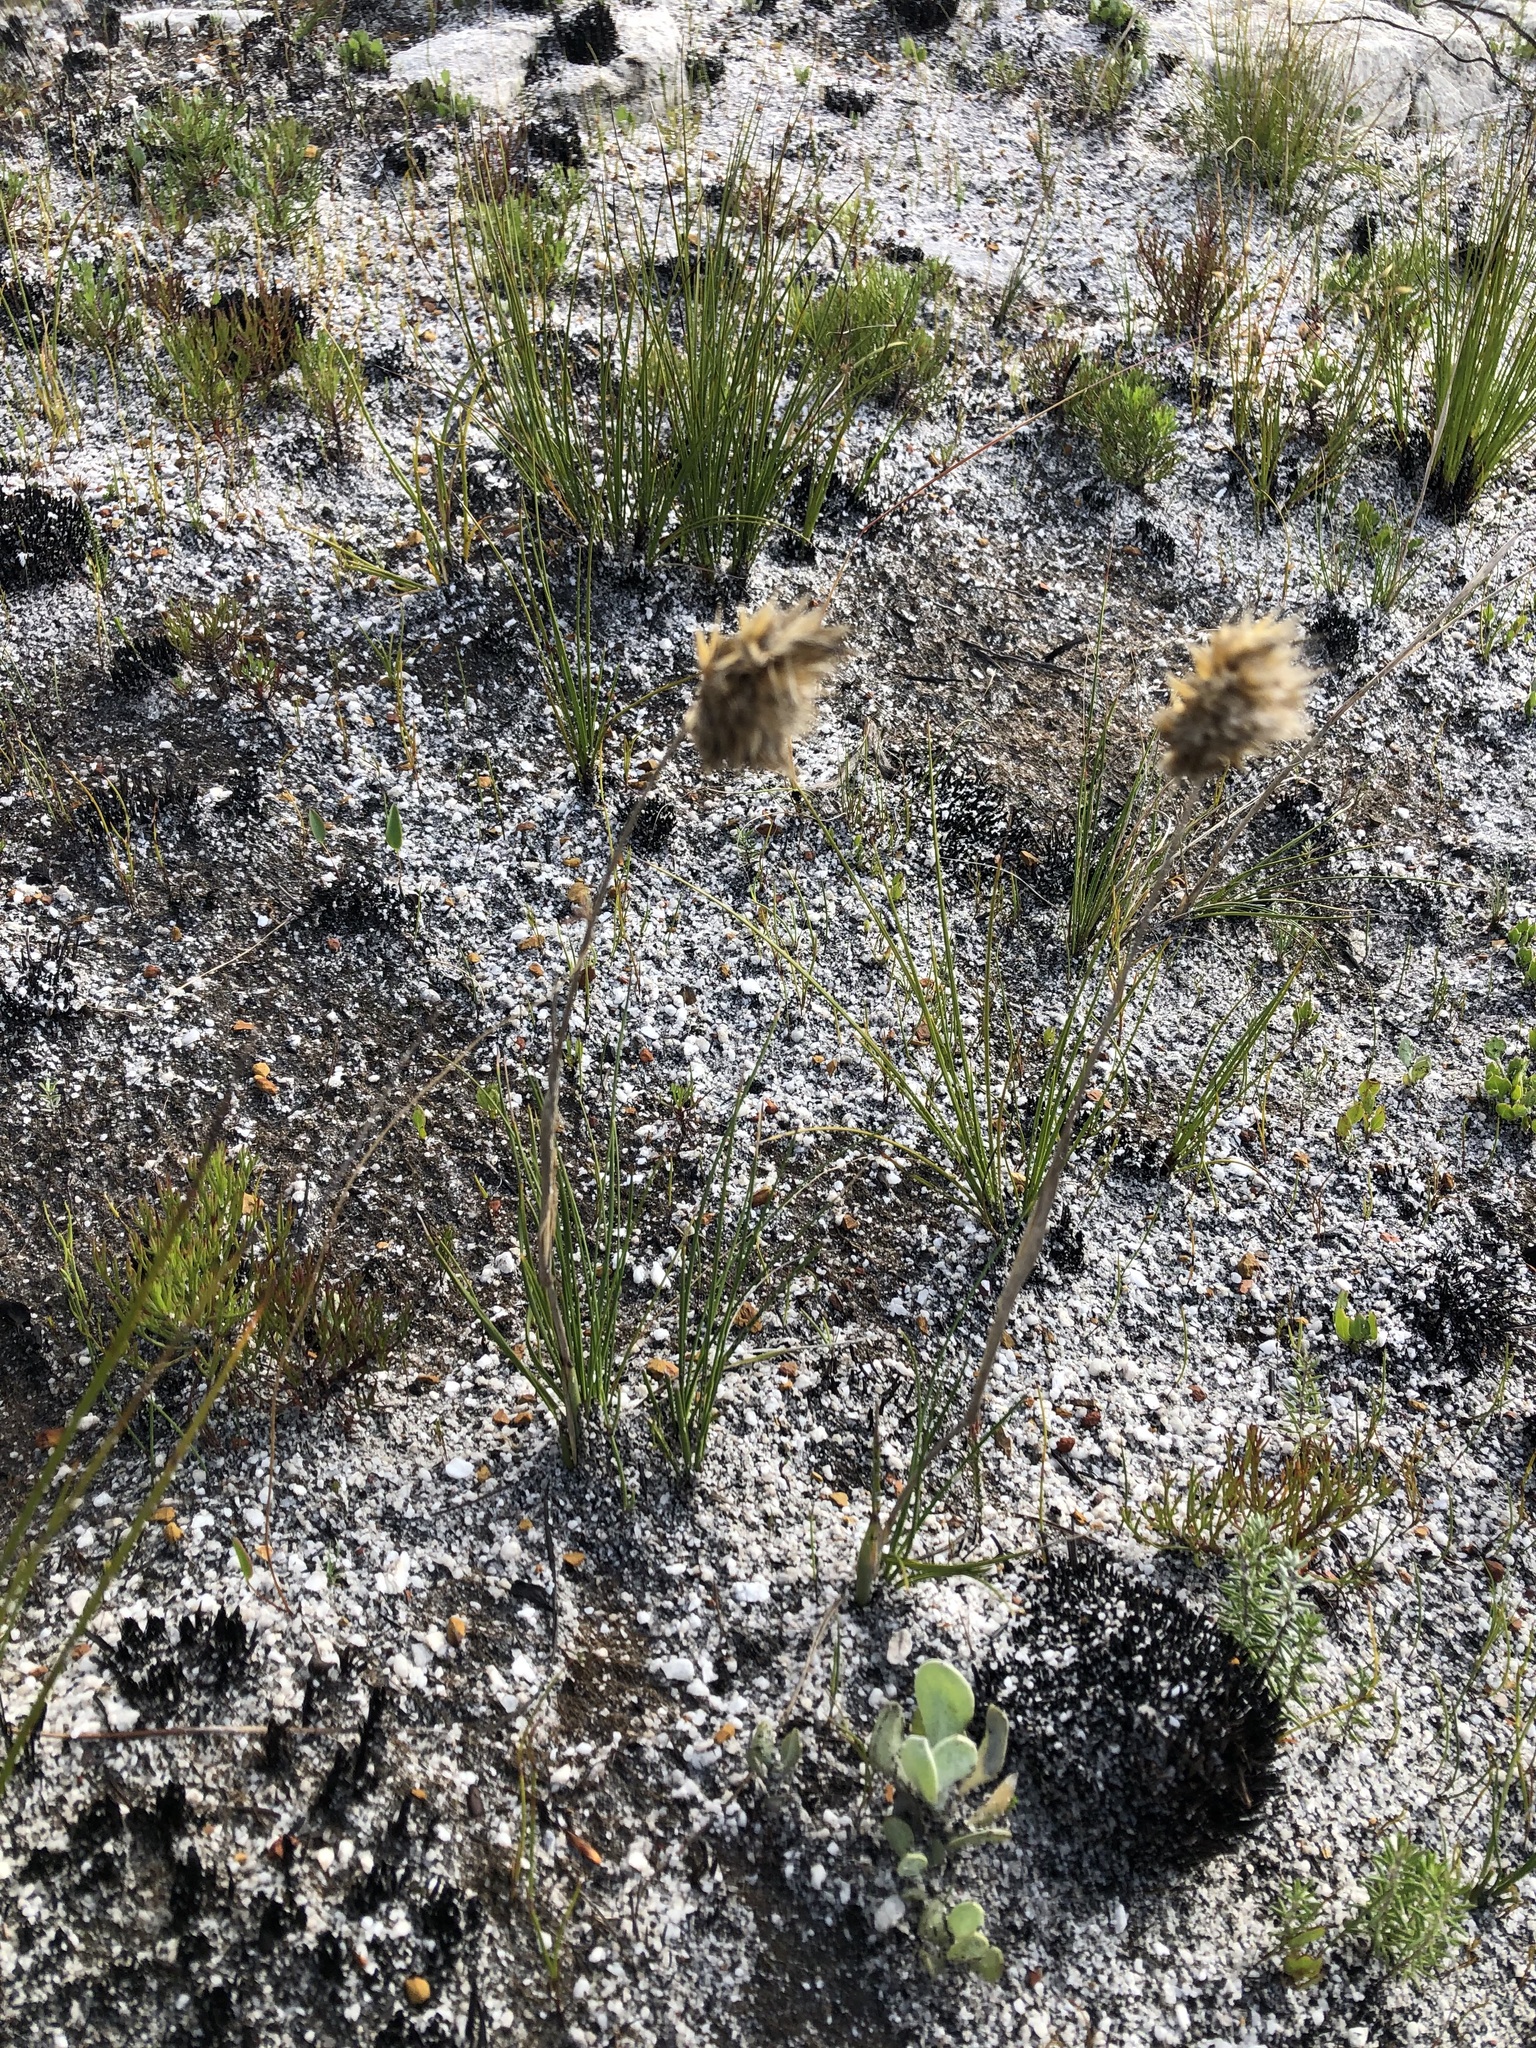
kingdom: Plantae
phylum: Tracheophyta
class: Liliopsida
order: Poales
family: Poaceae
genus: Geochloa
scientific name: Geochloa lupulina
